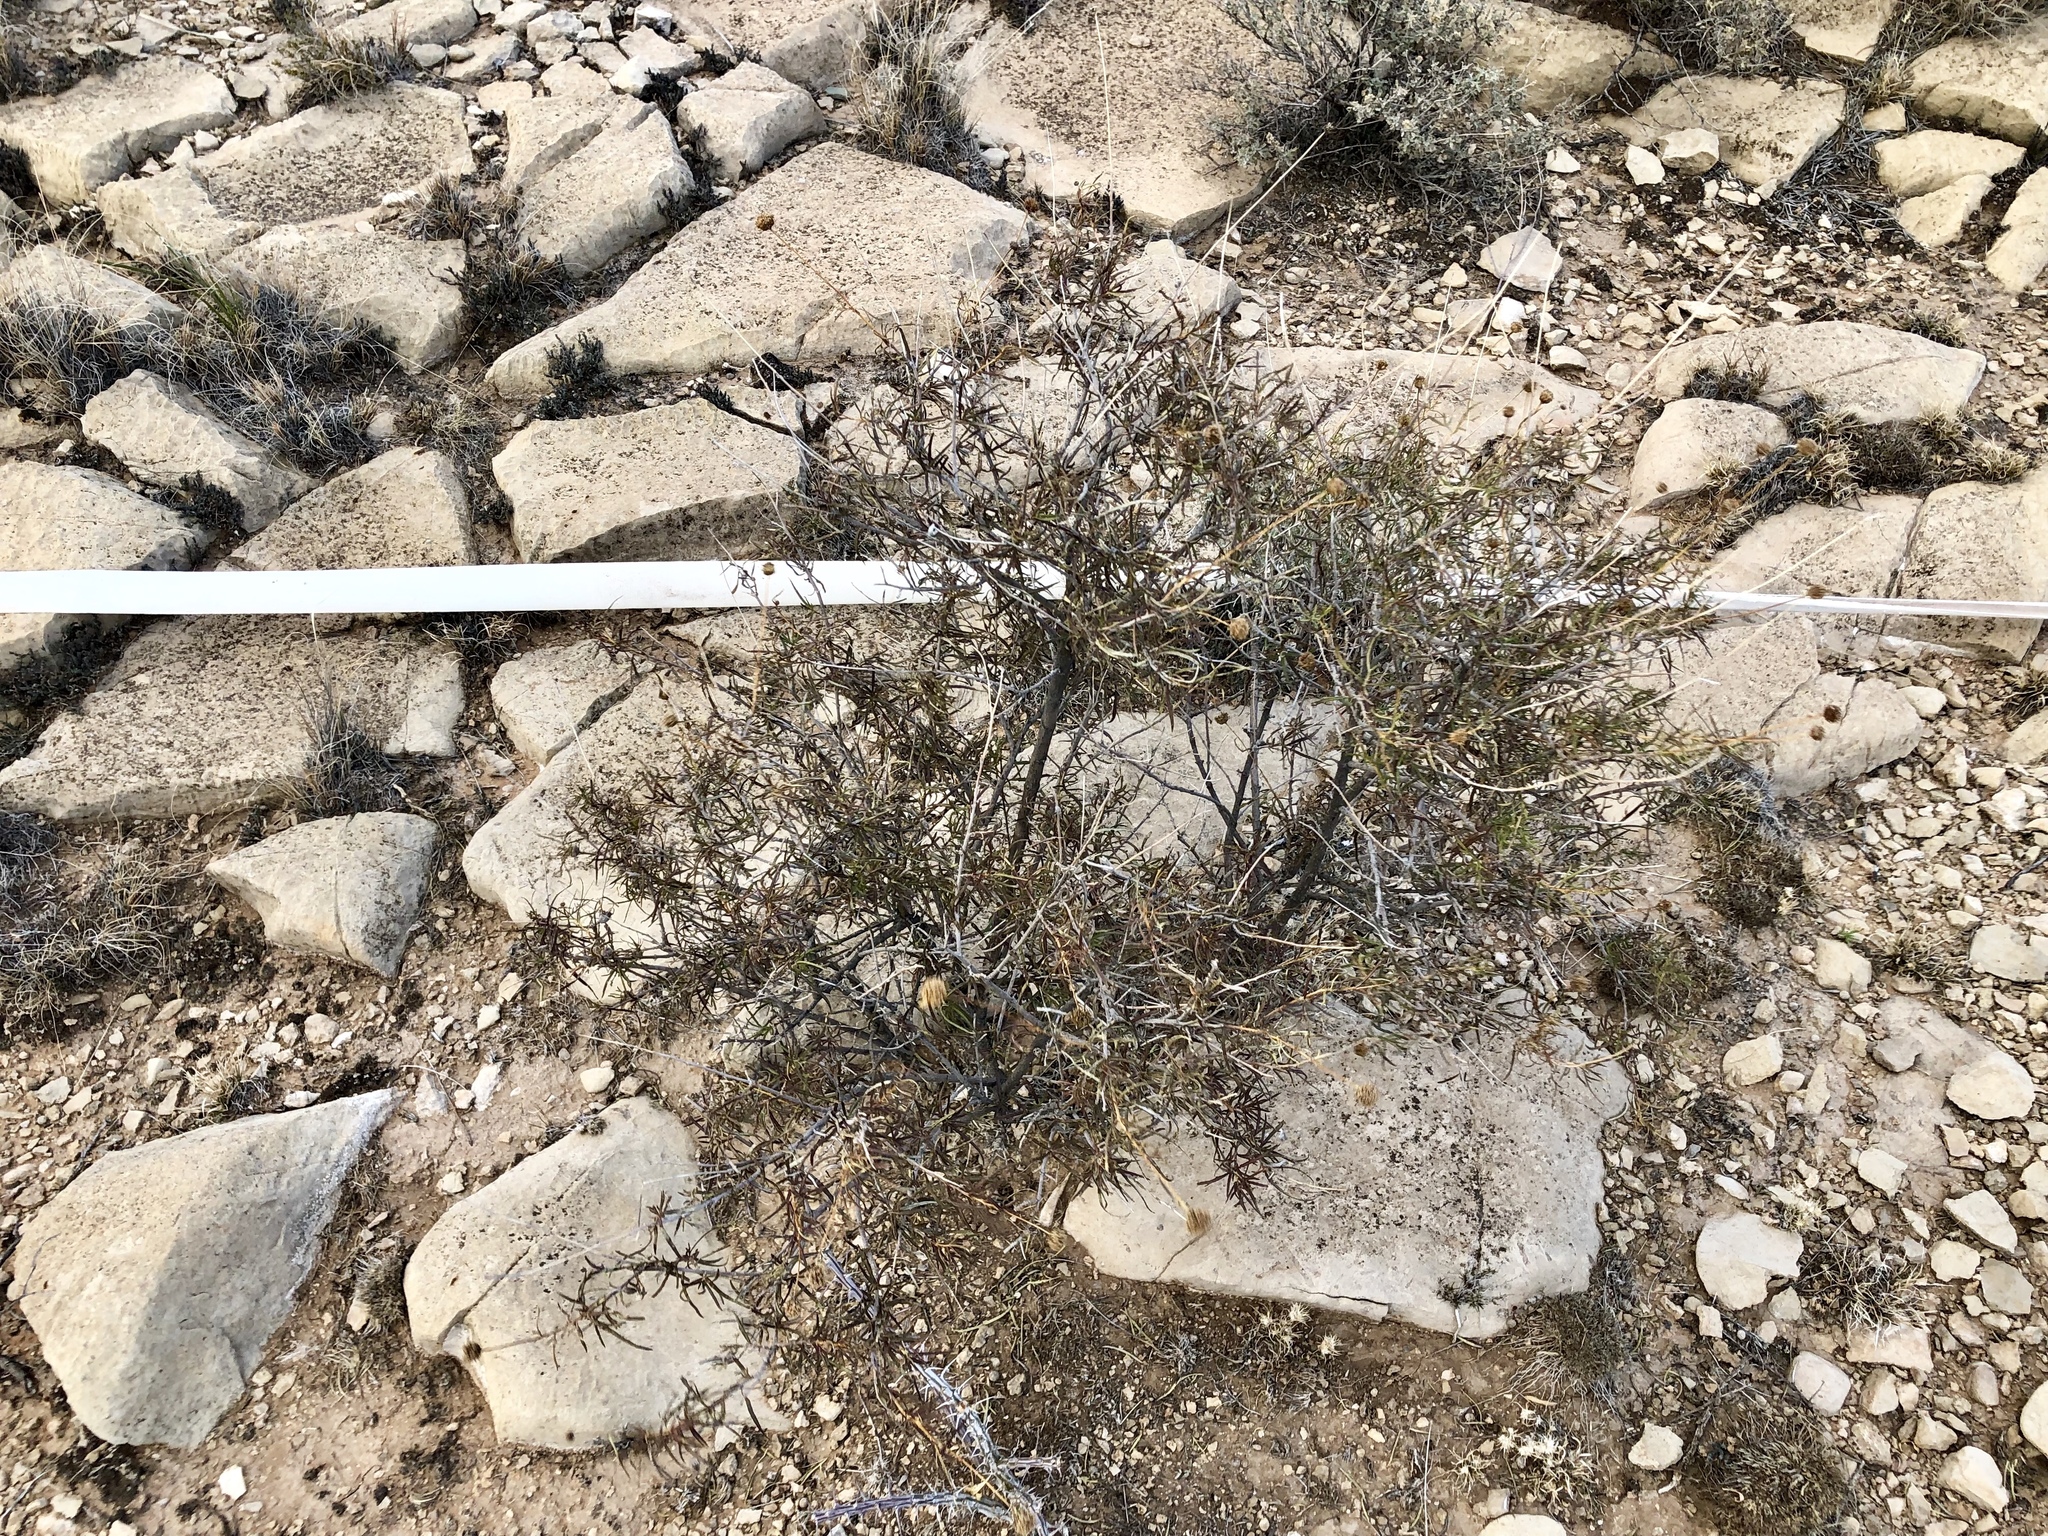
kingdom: Plantae
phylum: Tracheophyta
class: Magnoliopsida
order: Asterales
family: Asteraceae
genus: Sidneya
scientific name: Sidneya tenuifolia
